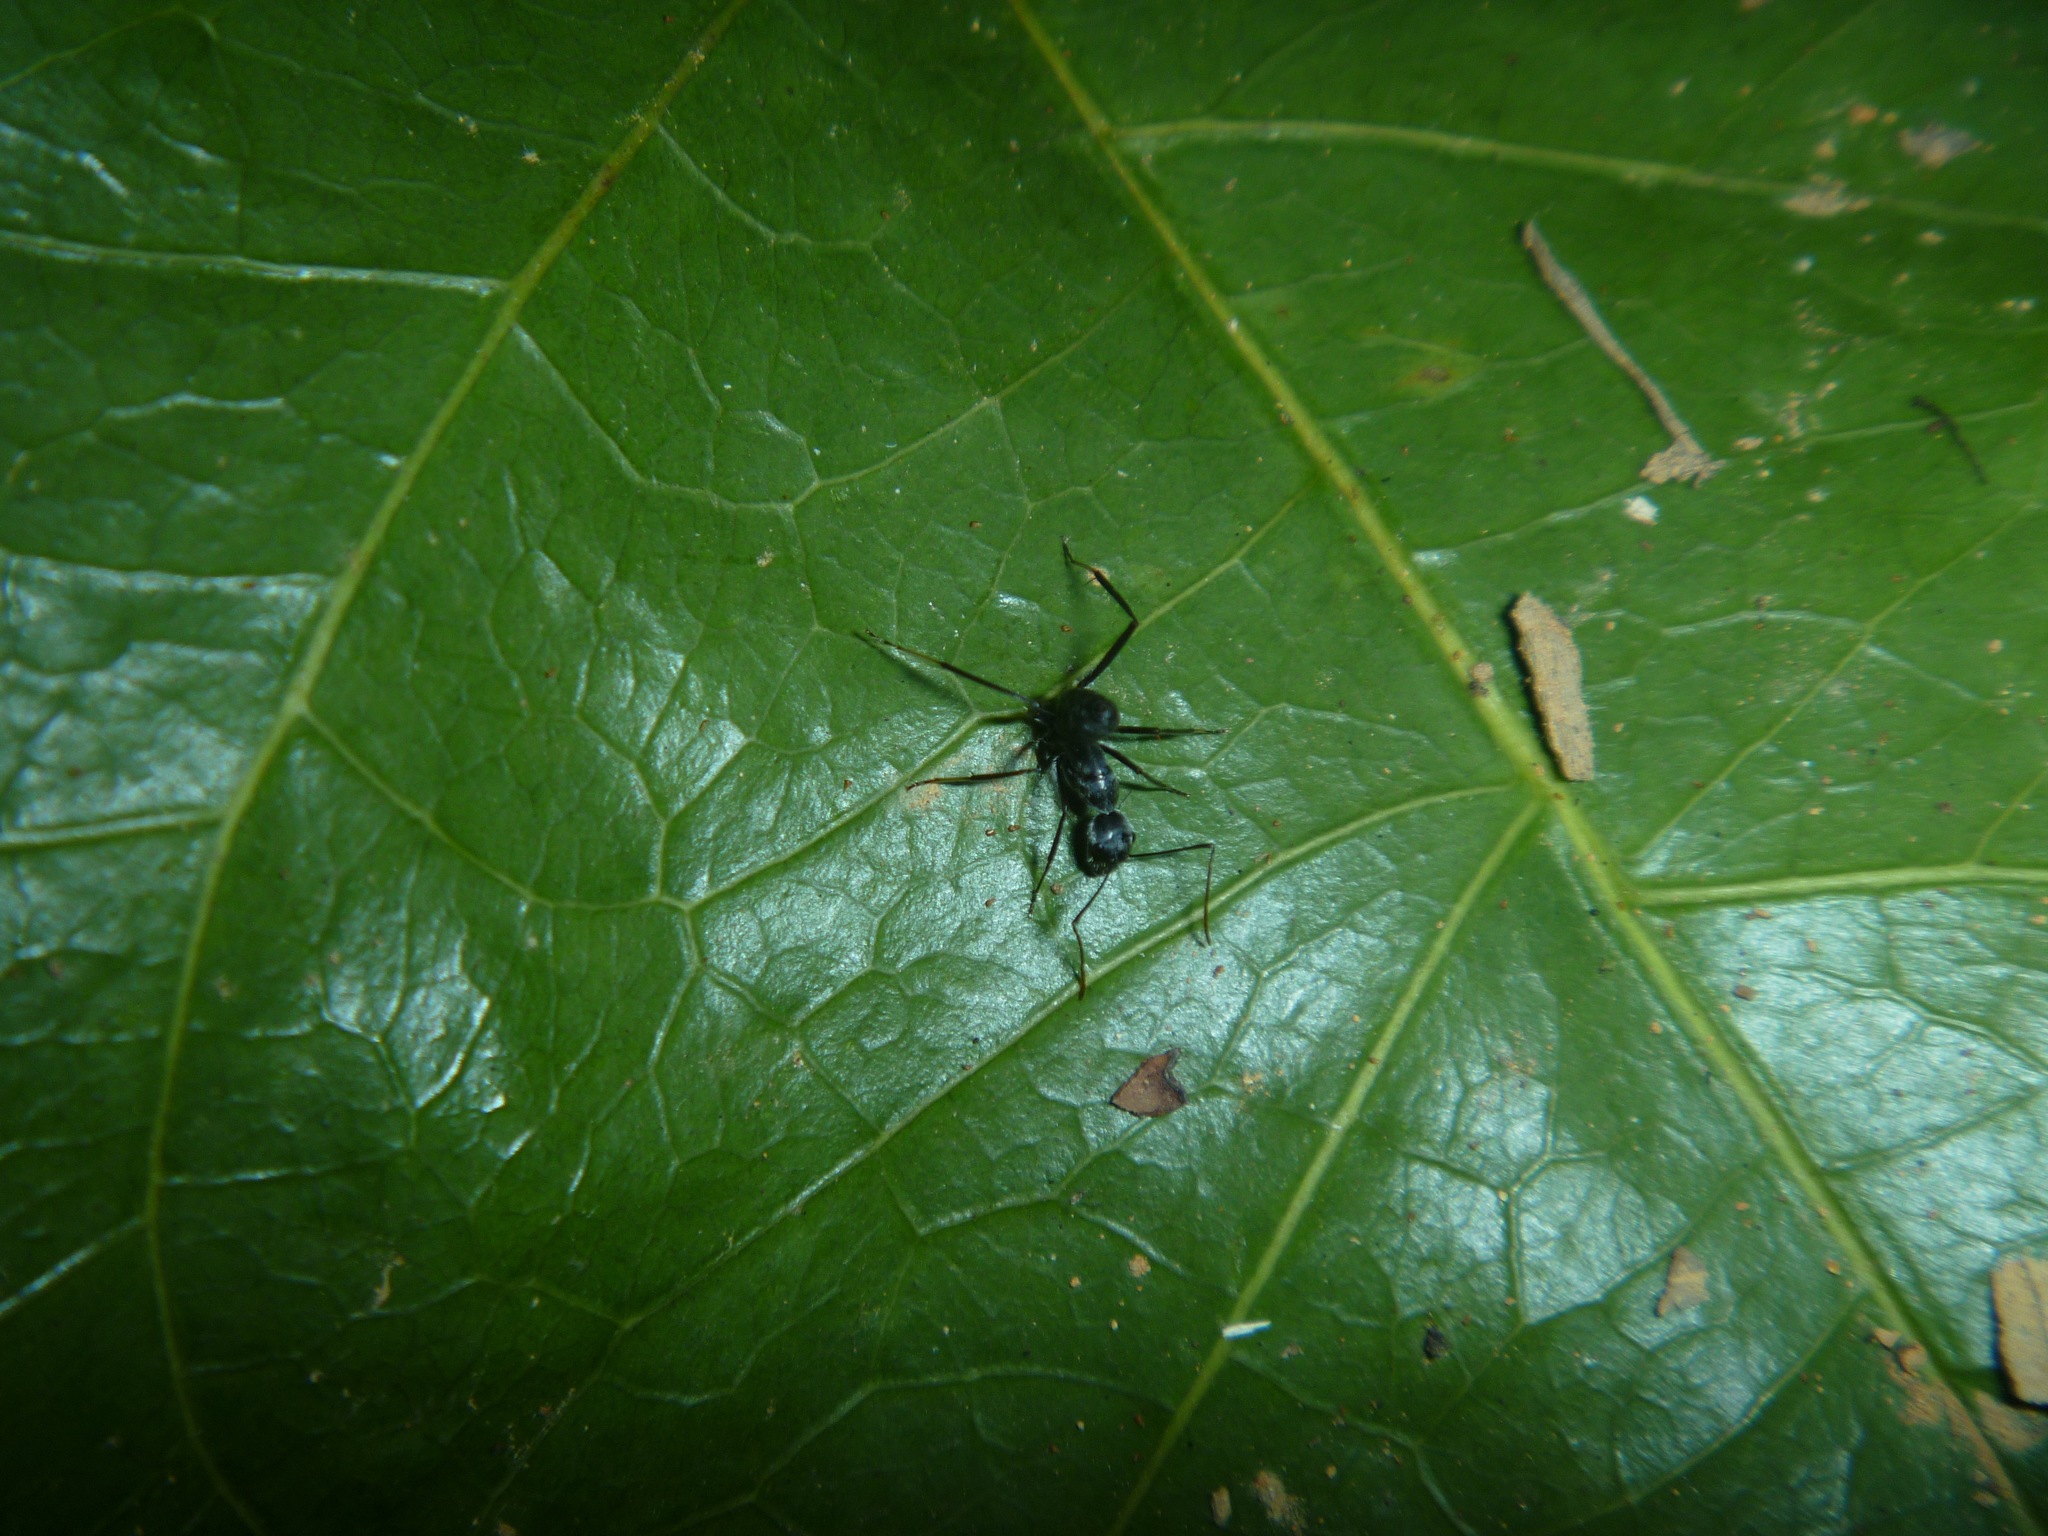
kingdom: Animalia
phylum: Arthropoda
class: Insecta
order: Hymenoptera
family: Formicidae
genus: Camponotus
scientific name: Camponotus gambeyi
